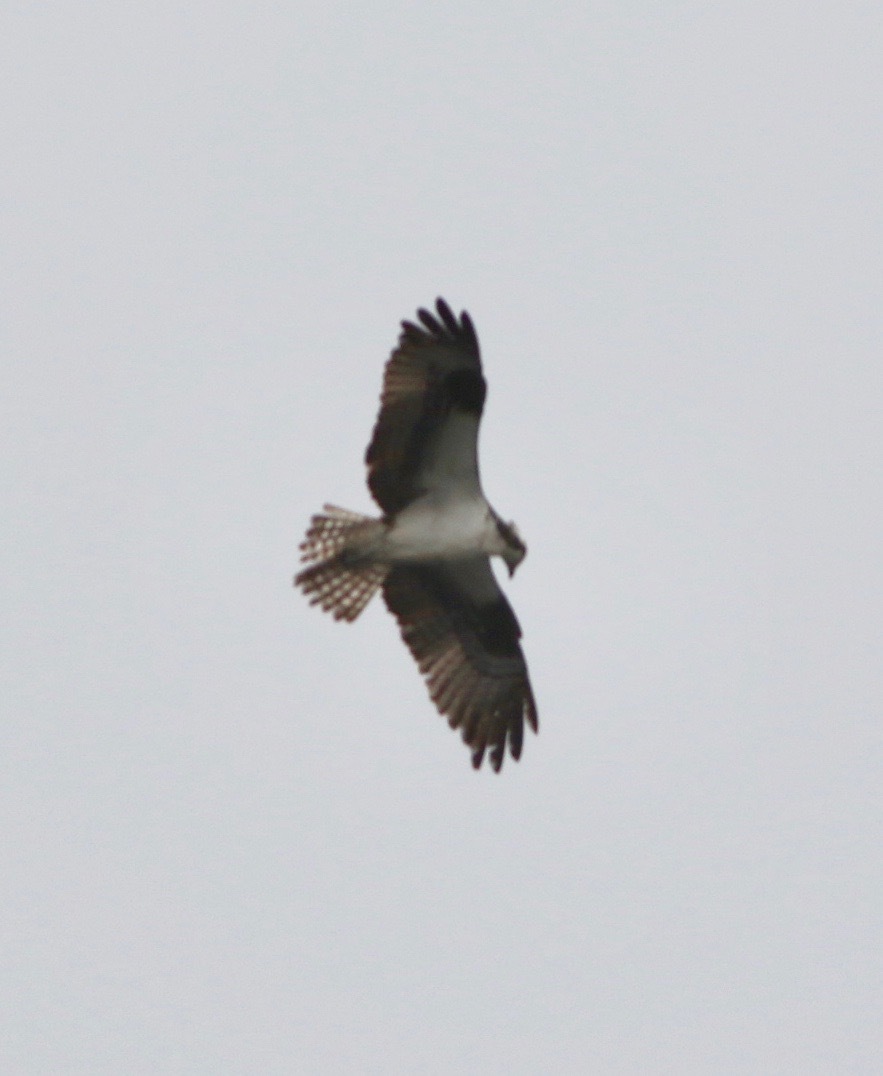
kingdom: Animalia
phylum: Chordata
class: Aves
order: Accipitriformes
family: Pandionidae
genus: Pandion
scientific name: Pandion haliaetus
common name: Osprey
